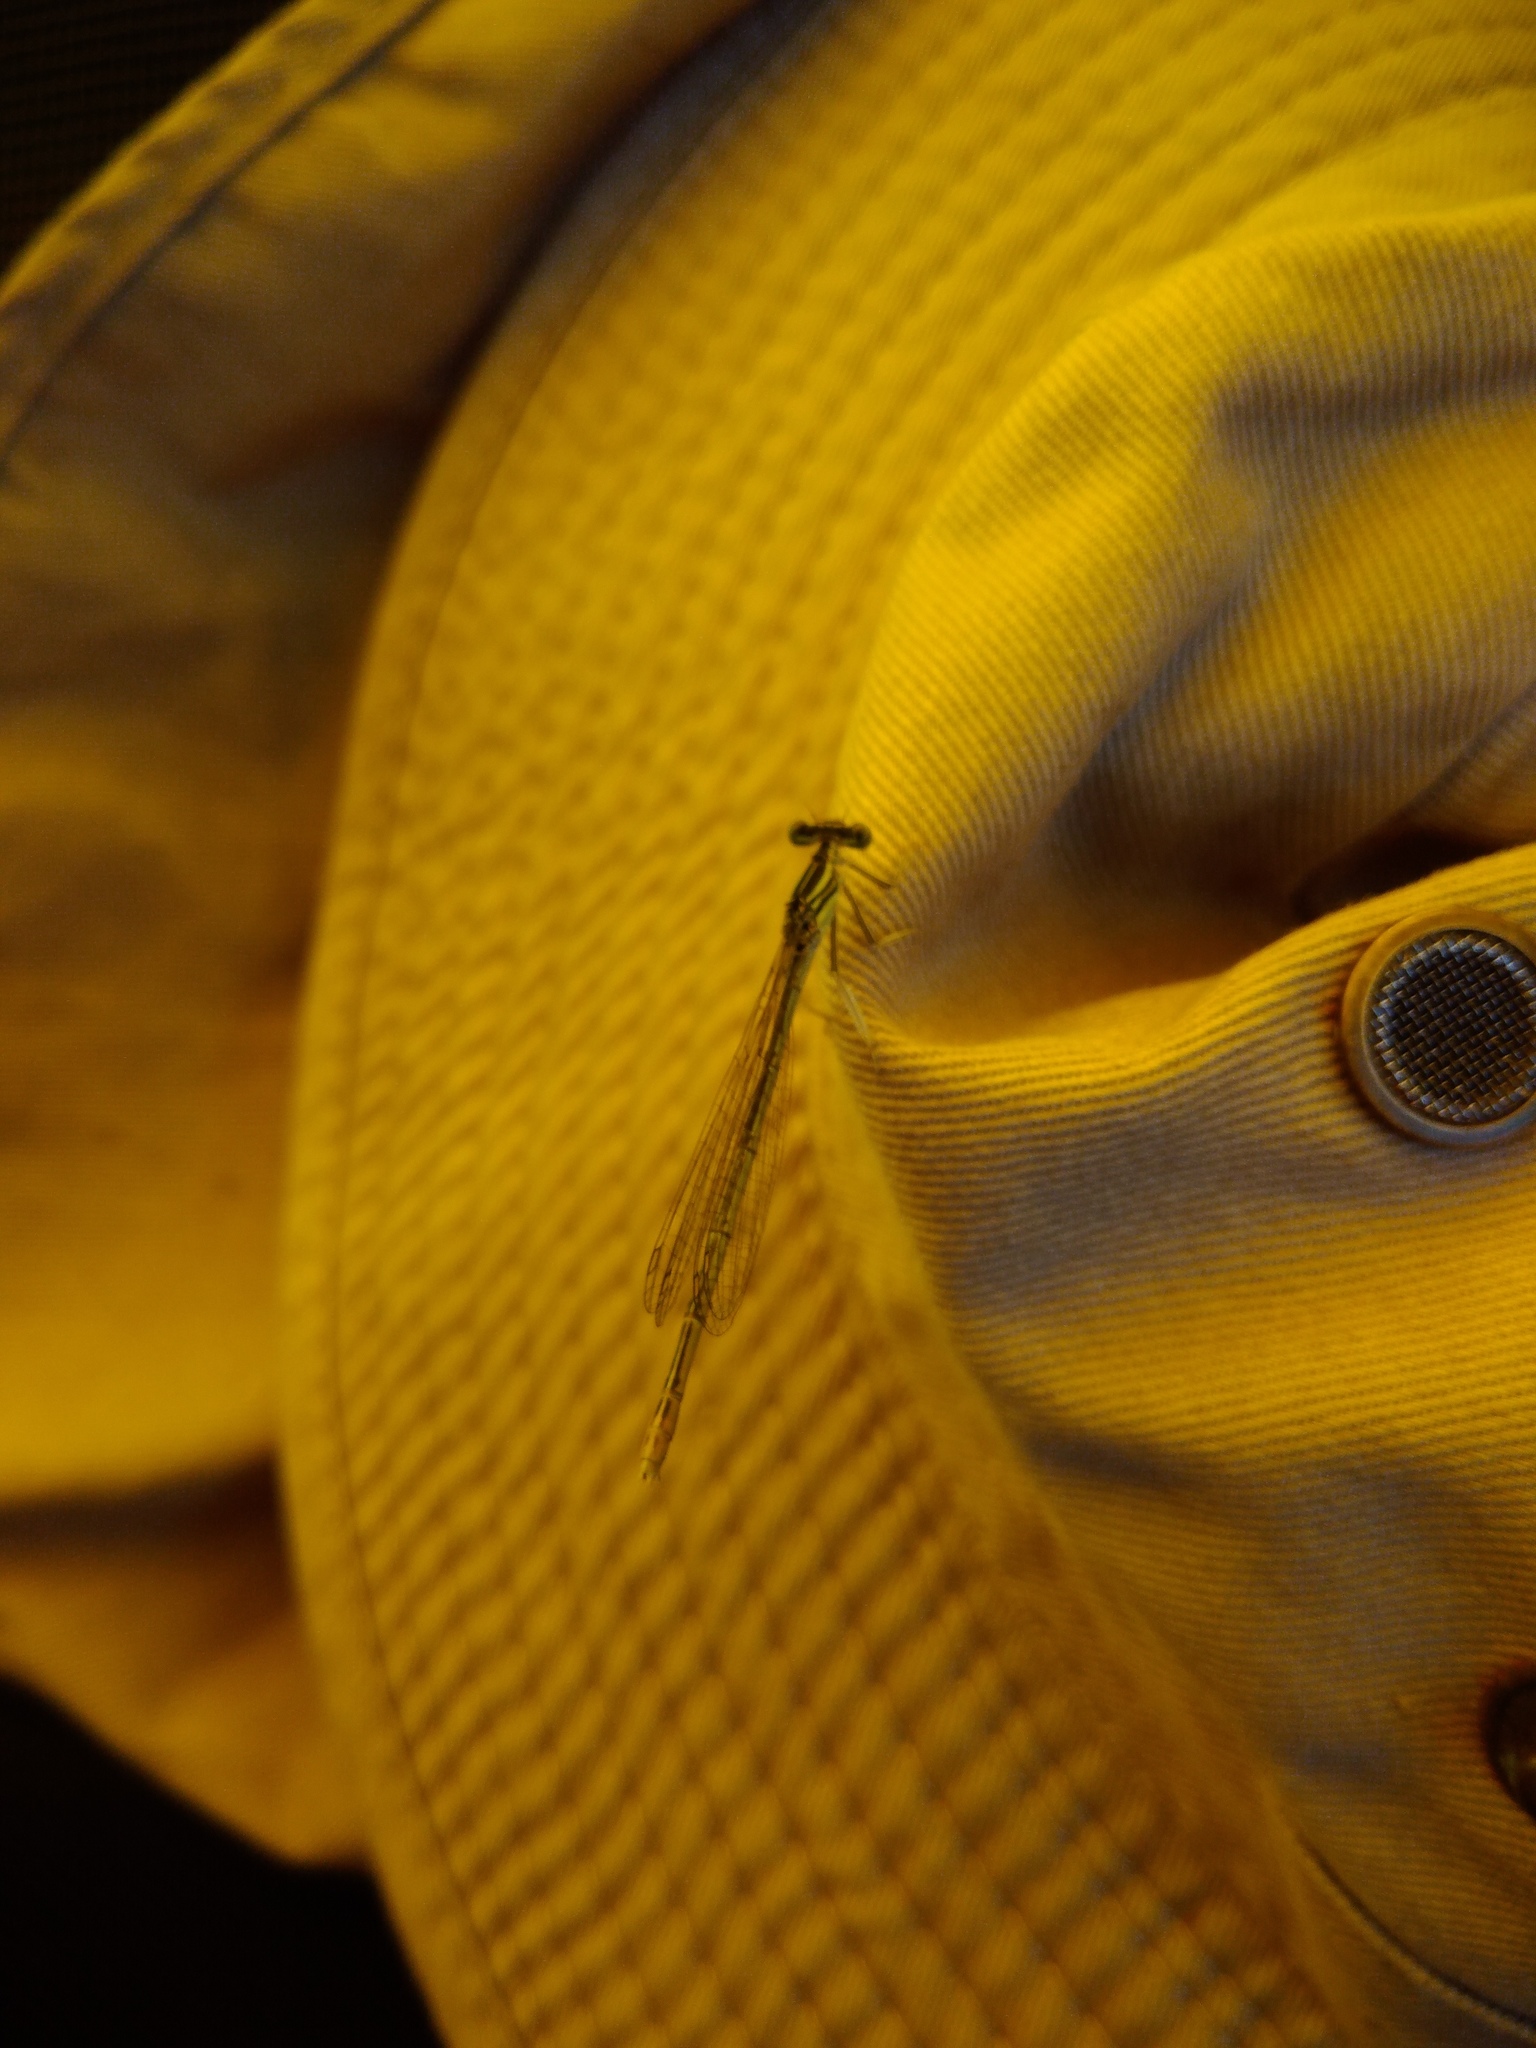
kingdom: Animalia
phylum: Arthropoda
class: Insecta
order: Odonata
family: Platycnemididae
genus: Platycnemis
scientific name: Platycnemis pennipes
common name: White-legged damselfly
